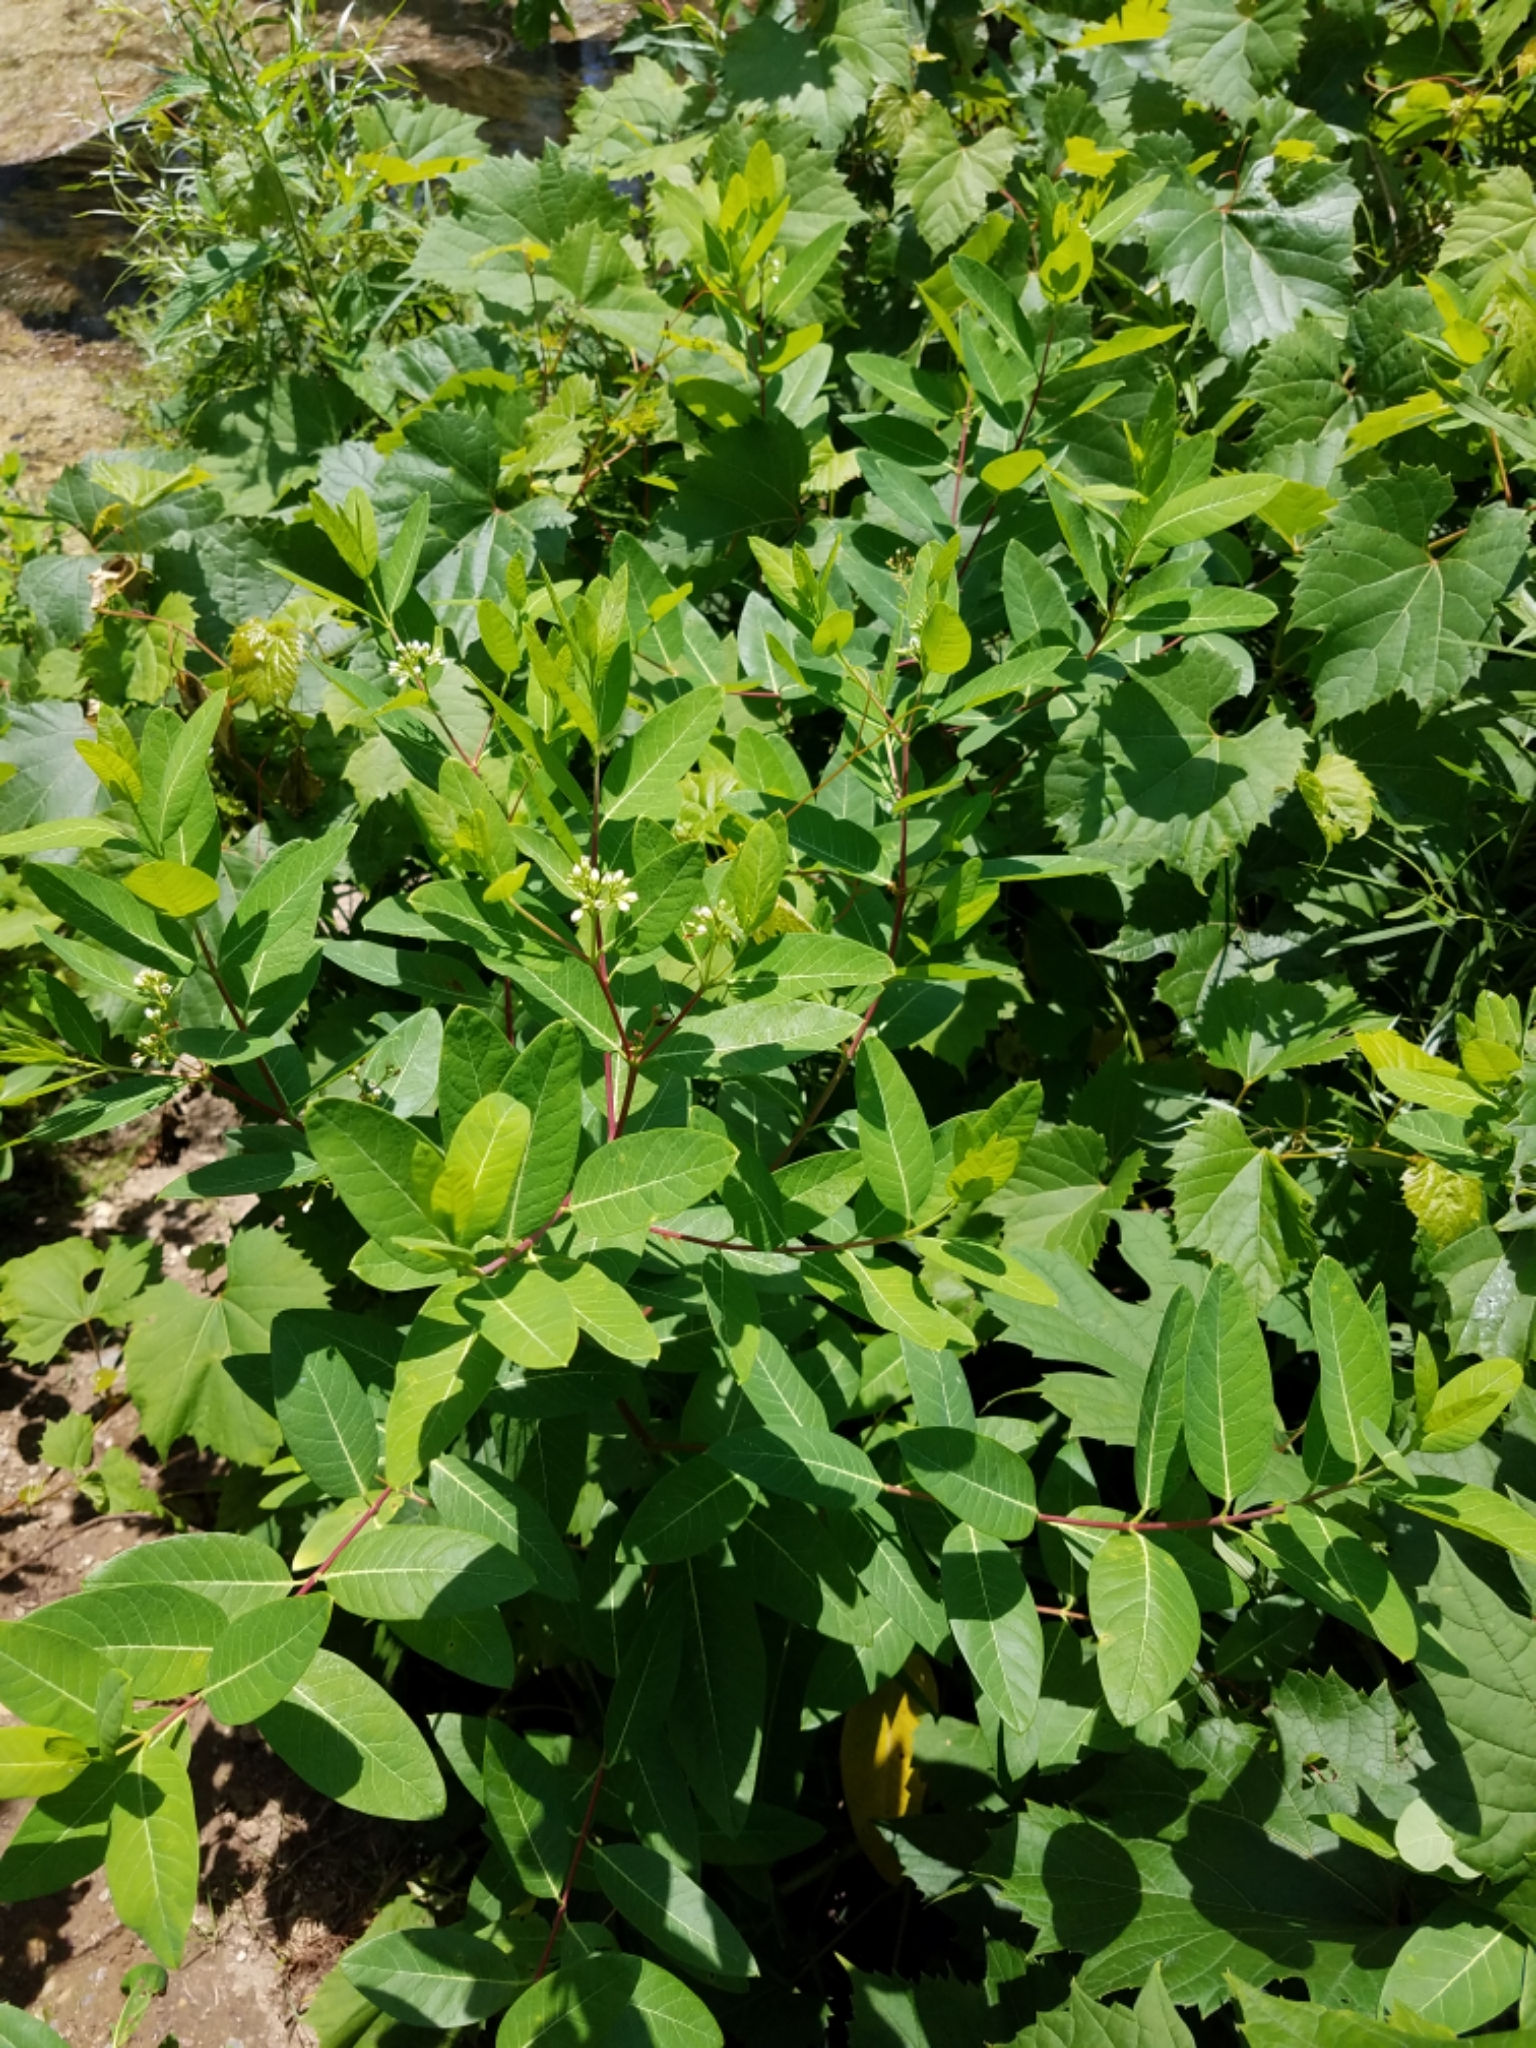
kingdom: Plantae
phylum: Tracheophyta
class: Magnoliopsida
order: Gentianales
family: Apocynaceae
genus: Apocynum
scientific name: Apocynum cannabinum
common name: Hemp dogbane
